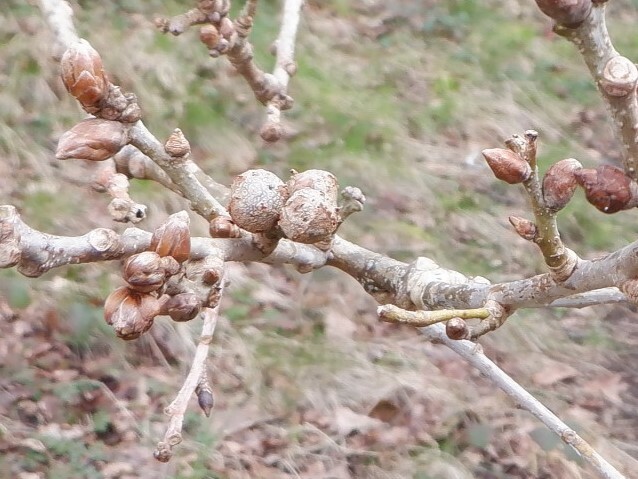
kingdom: Animalia
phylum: Arthropoda
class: Insecta
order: Hymenoptera
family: Cynipidae
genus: Andricus
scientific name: Andricus lignicolus
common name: Cola-nut gall
